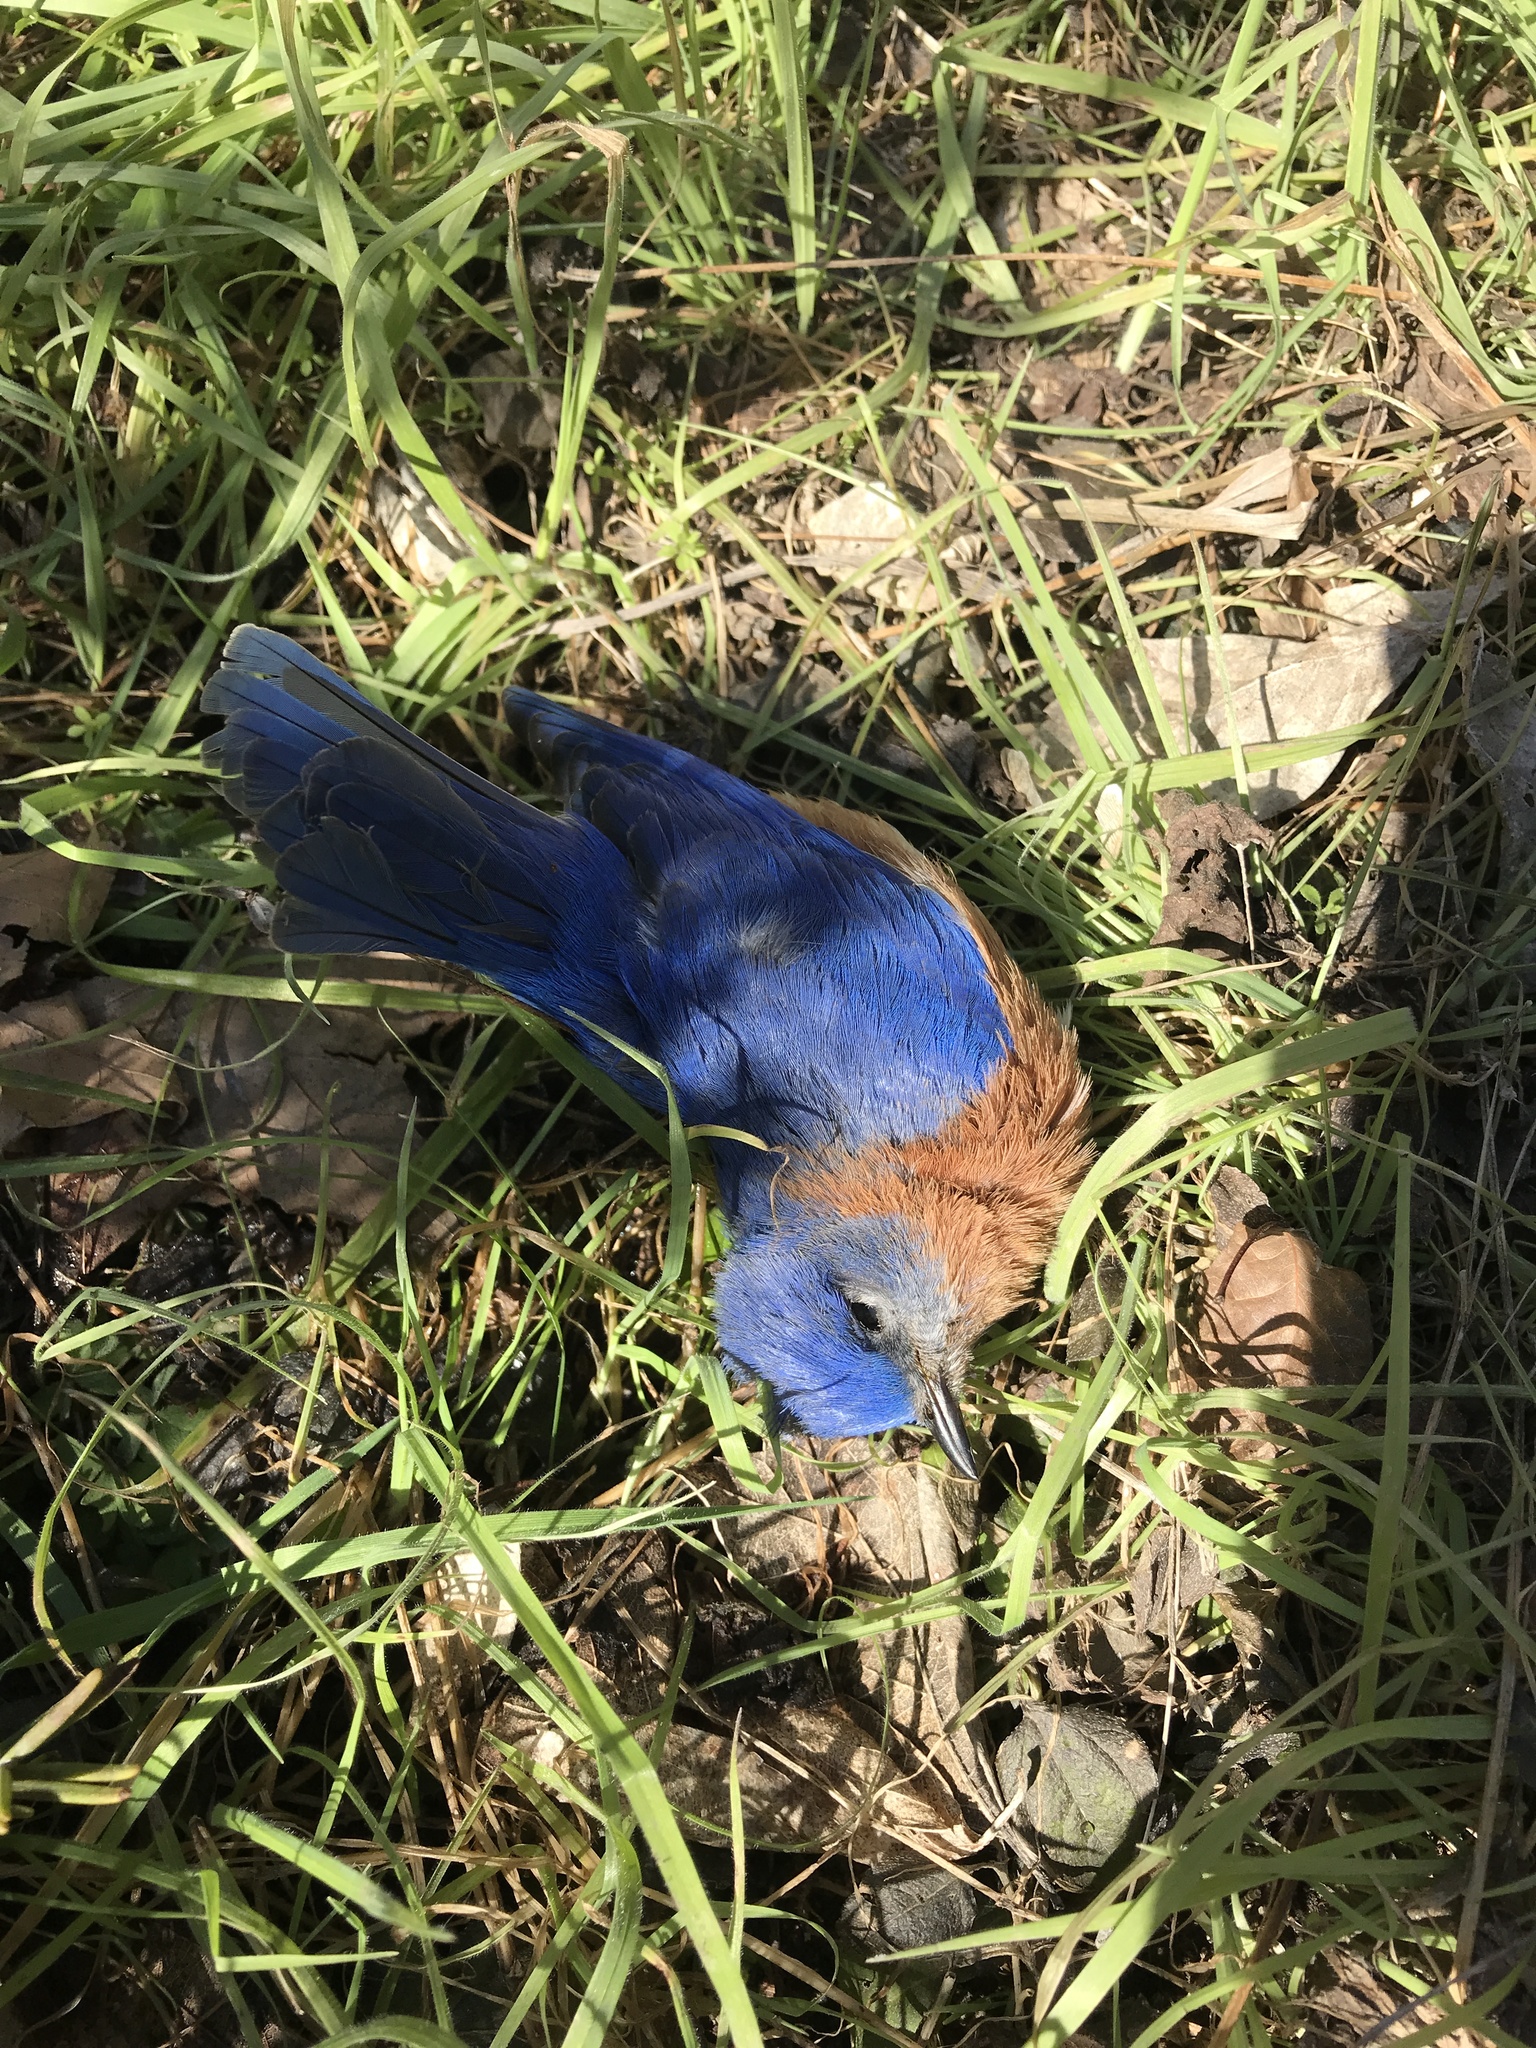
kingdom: Animalia
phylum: Chordata
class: Aves
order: Passeriformes
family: Turdidae
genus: Sialia
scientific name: Sialia sialis
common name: Eastern bluebird
